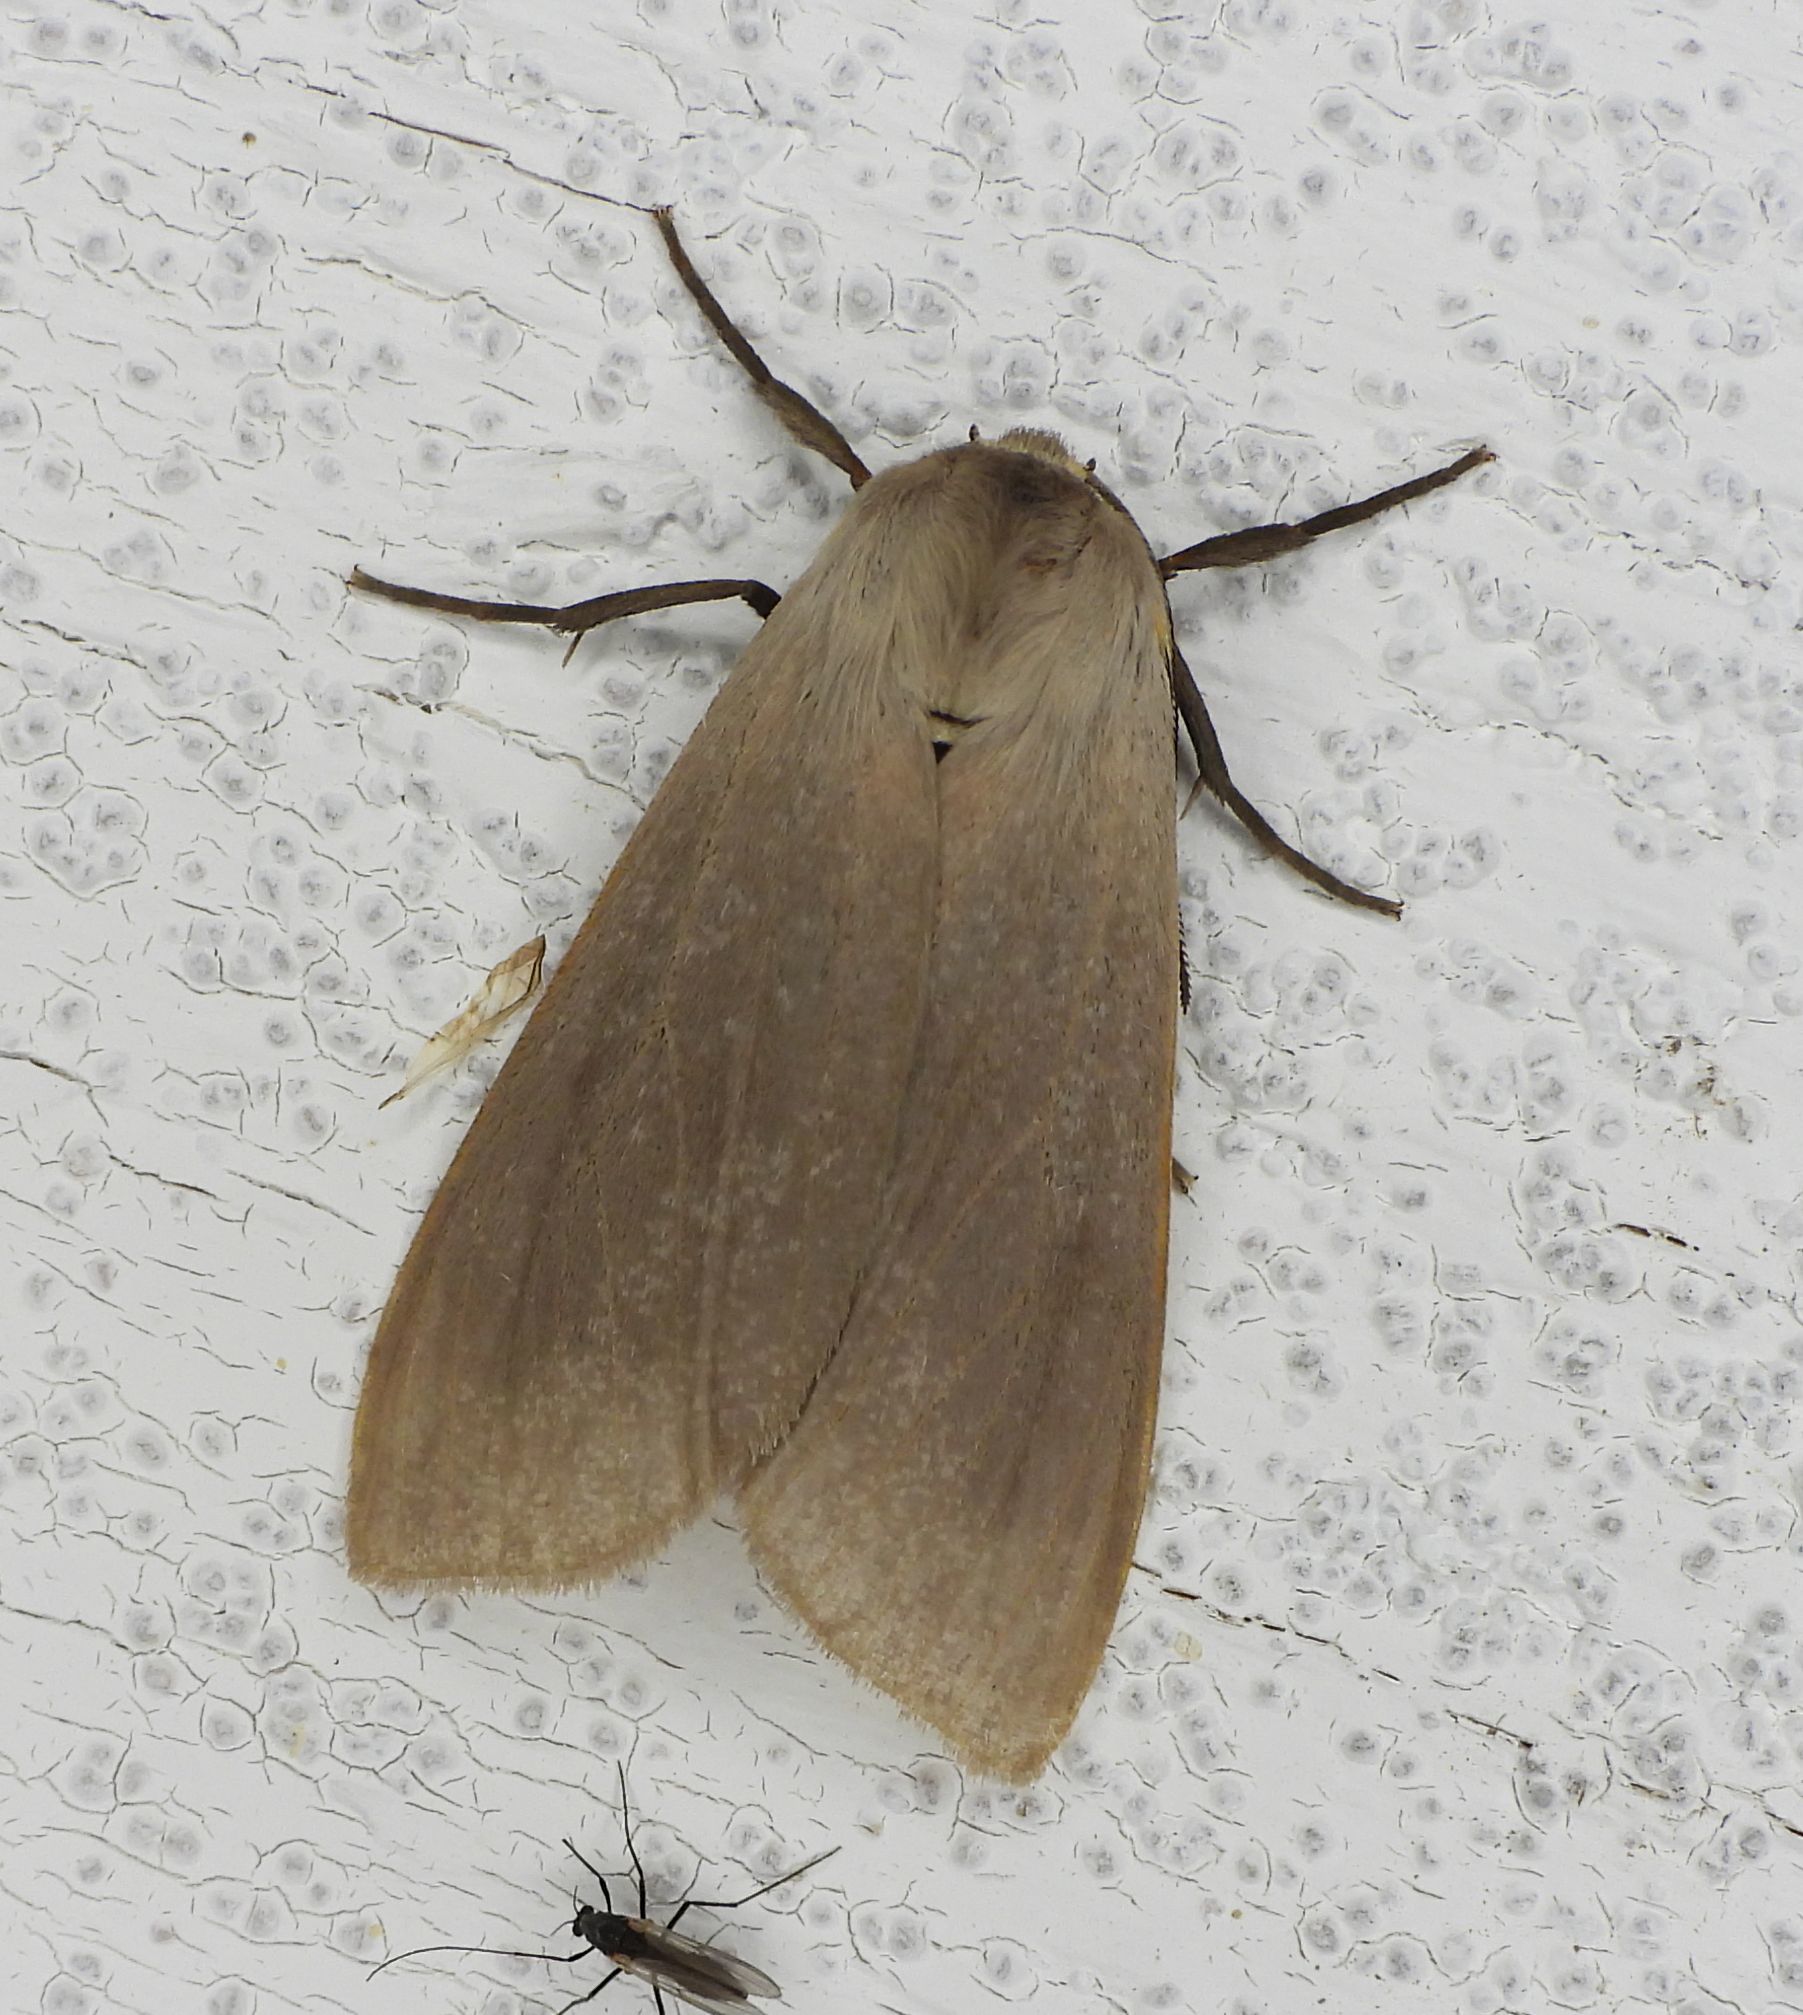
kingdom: Animalia
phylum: Arthropoda
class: Insecta
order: Lepidoptera
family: Erebidae
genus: Euchaetes
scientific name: Euchaetes egle
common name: Milkweed tussock moth
